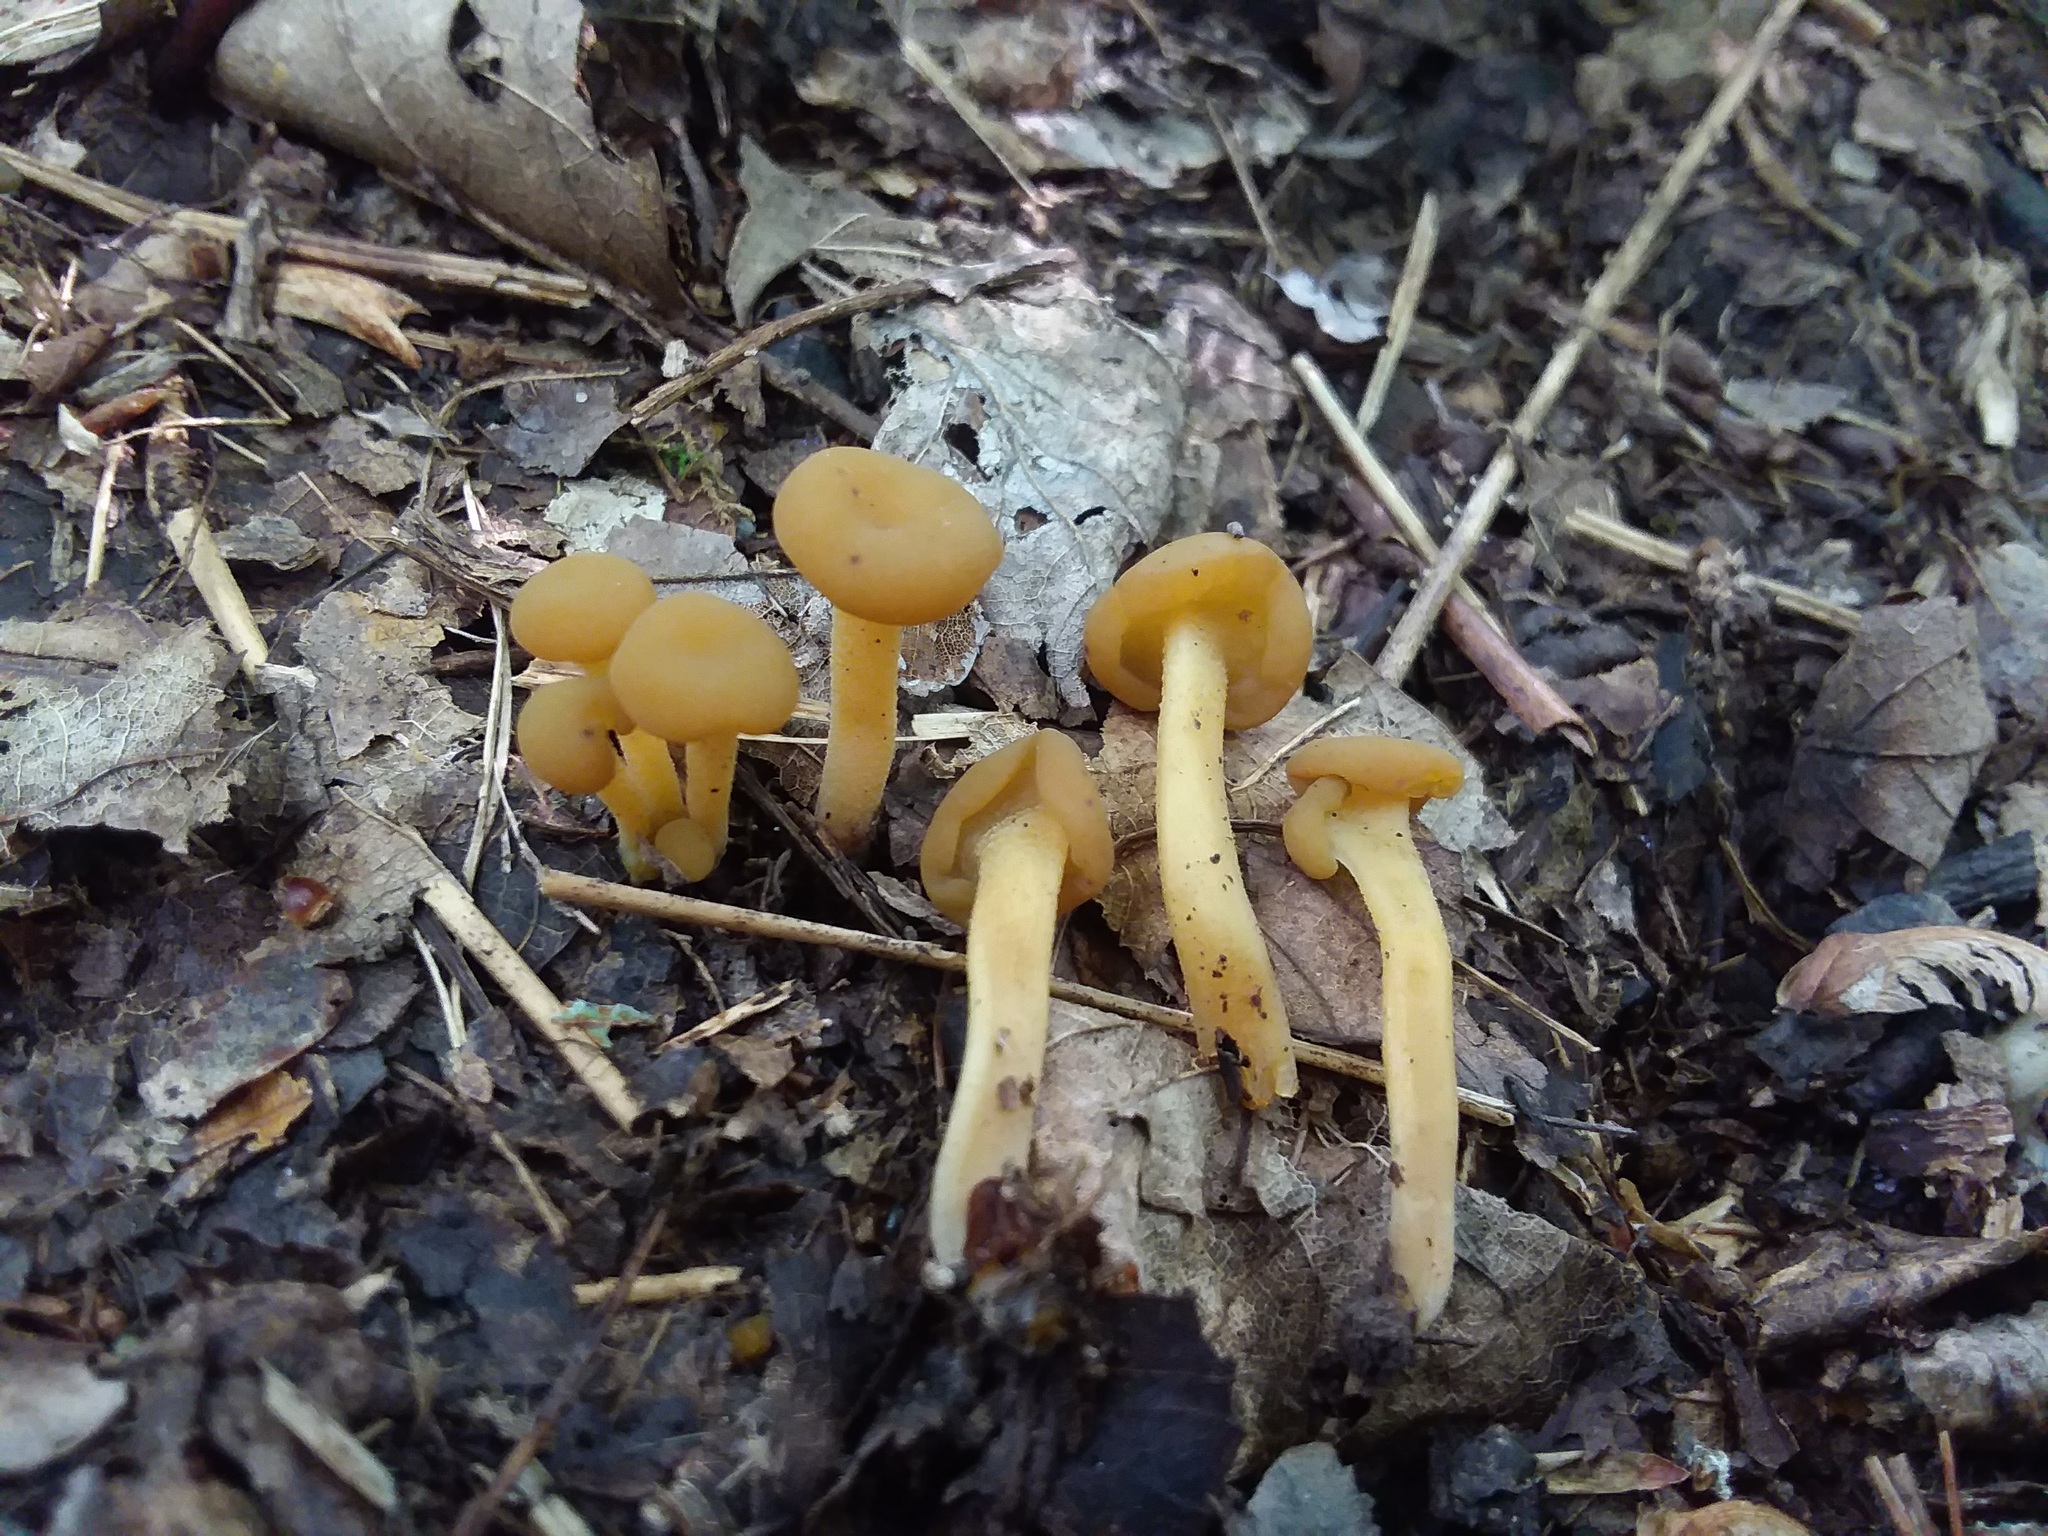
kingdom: Fungi
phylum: Ascomycota
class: Leotiomycetes
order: Leotiales
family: Leotiaceae
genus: Leotia
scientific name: Leotia lubrica
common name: Jellybaby
